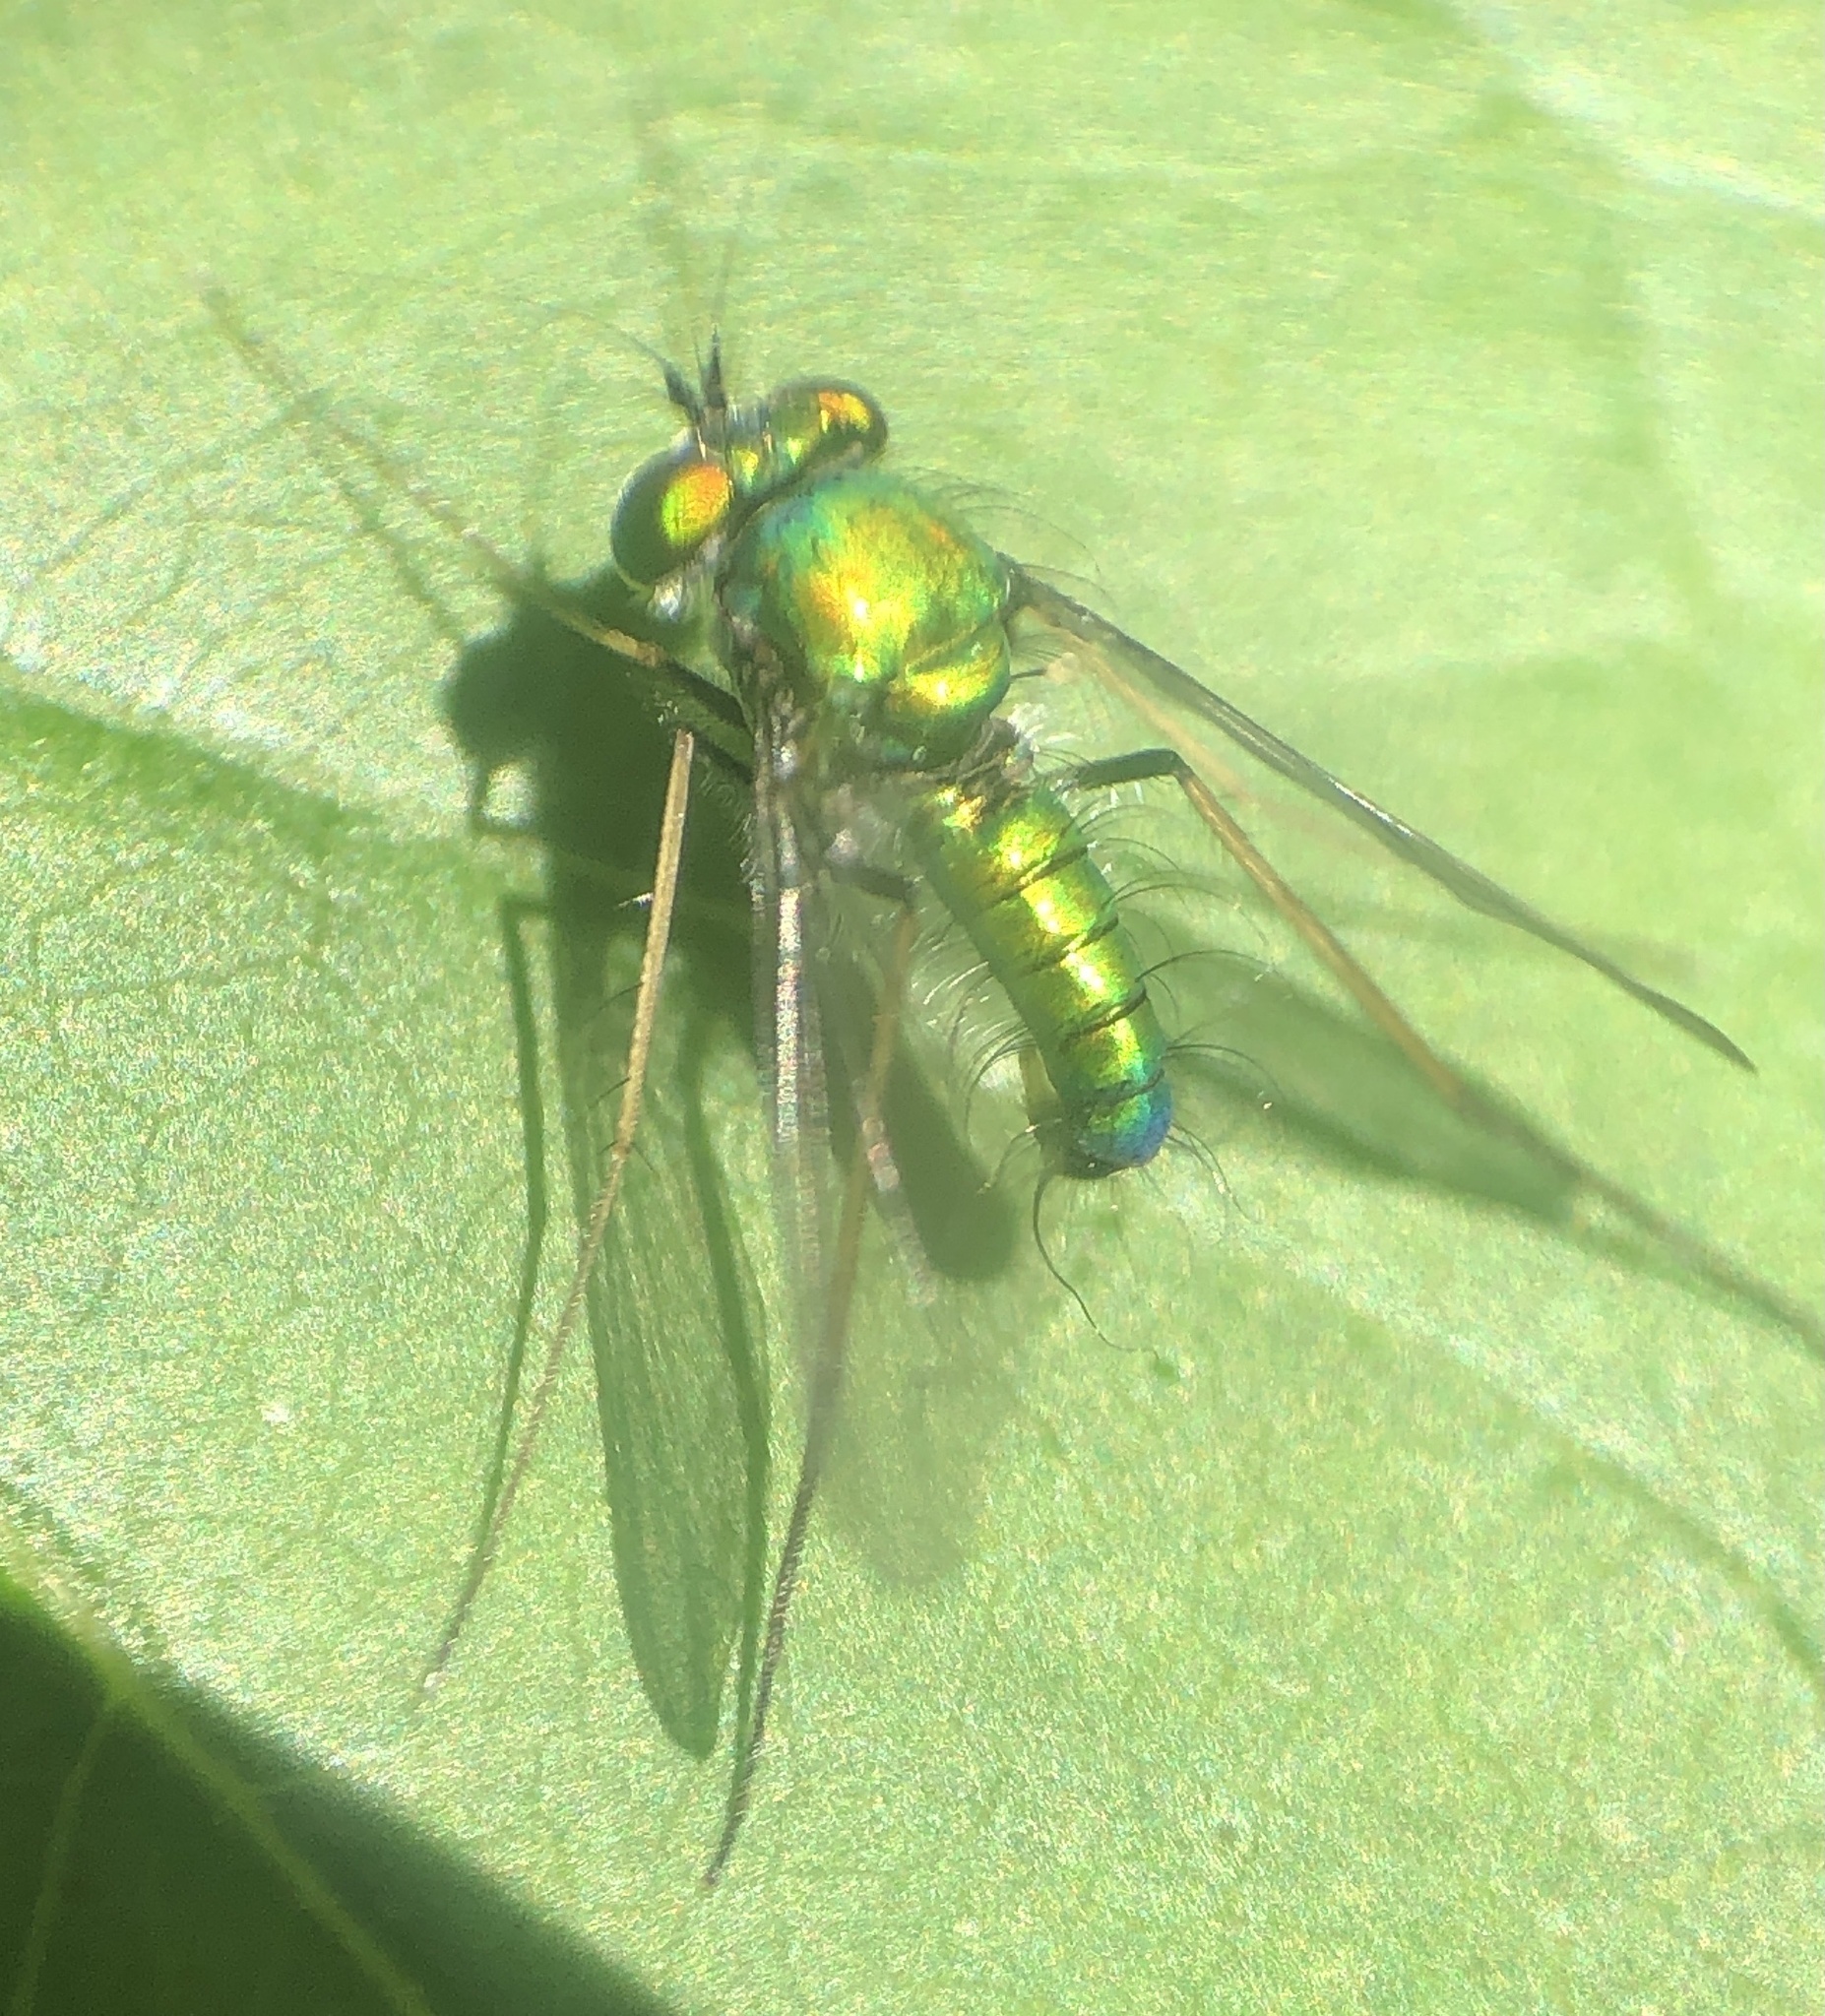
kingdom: Animalia
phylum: Arthropoda
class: Insecta
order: Diptera
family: Dolichopodidae
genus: Condylostylus
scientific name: Condylostylus comatus
